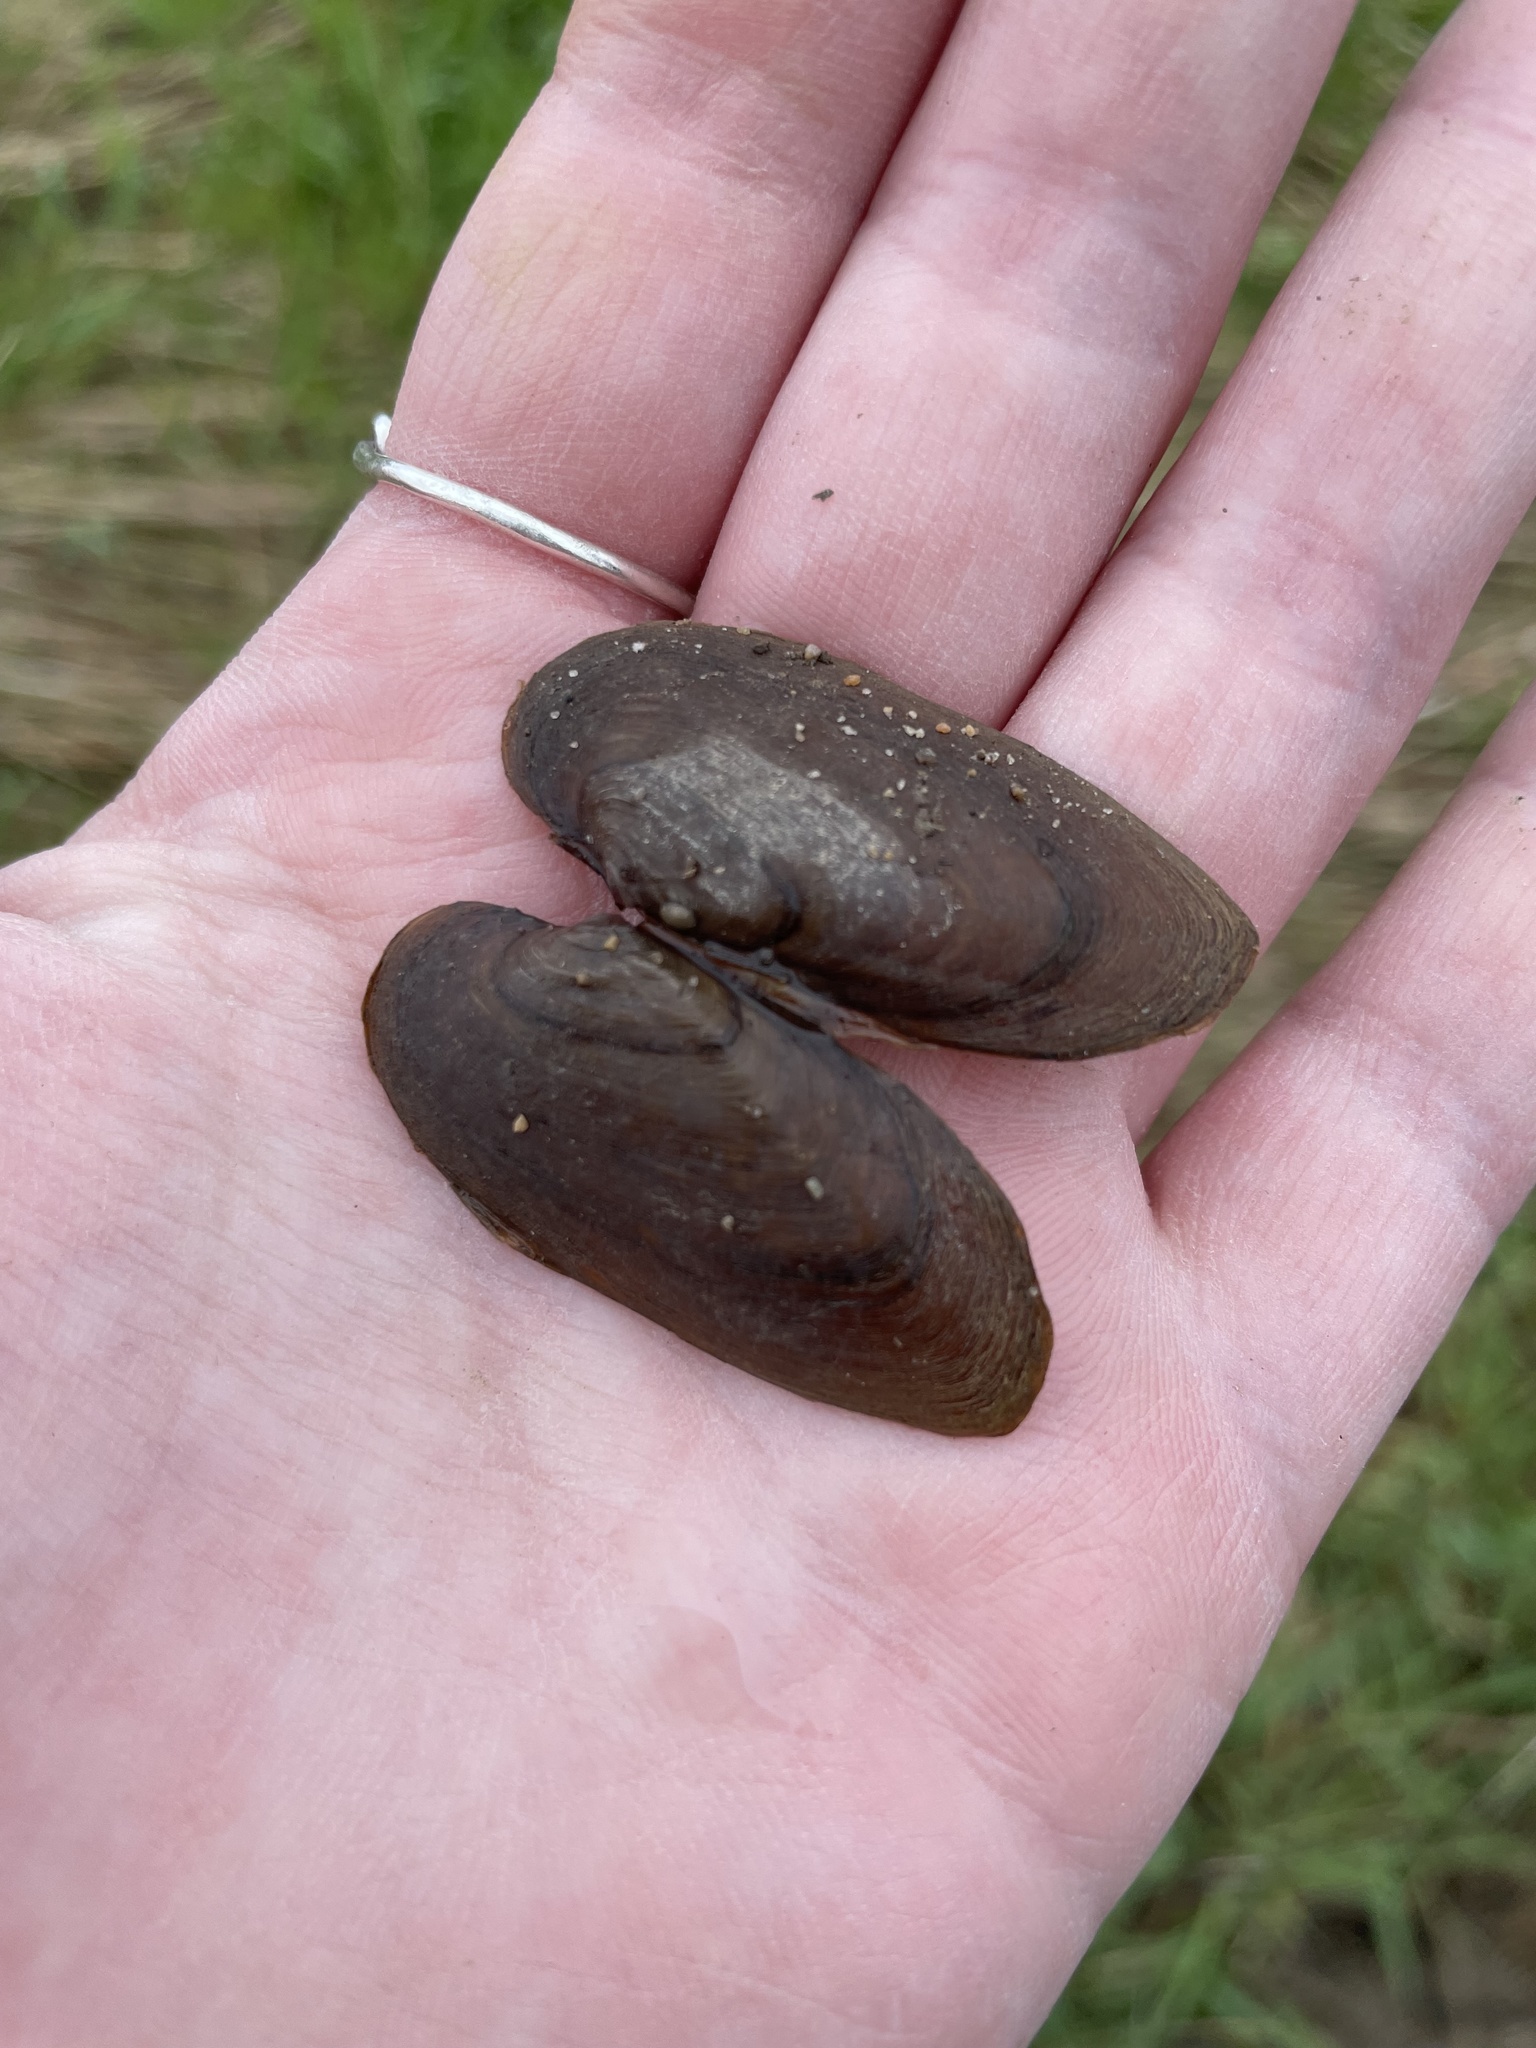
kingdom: Animalia
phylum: Mollusca
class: Bivalvia
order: Unionida
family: Unionidae
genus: Eurynia
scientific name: Eurynia dilatata
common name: Spike
